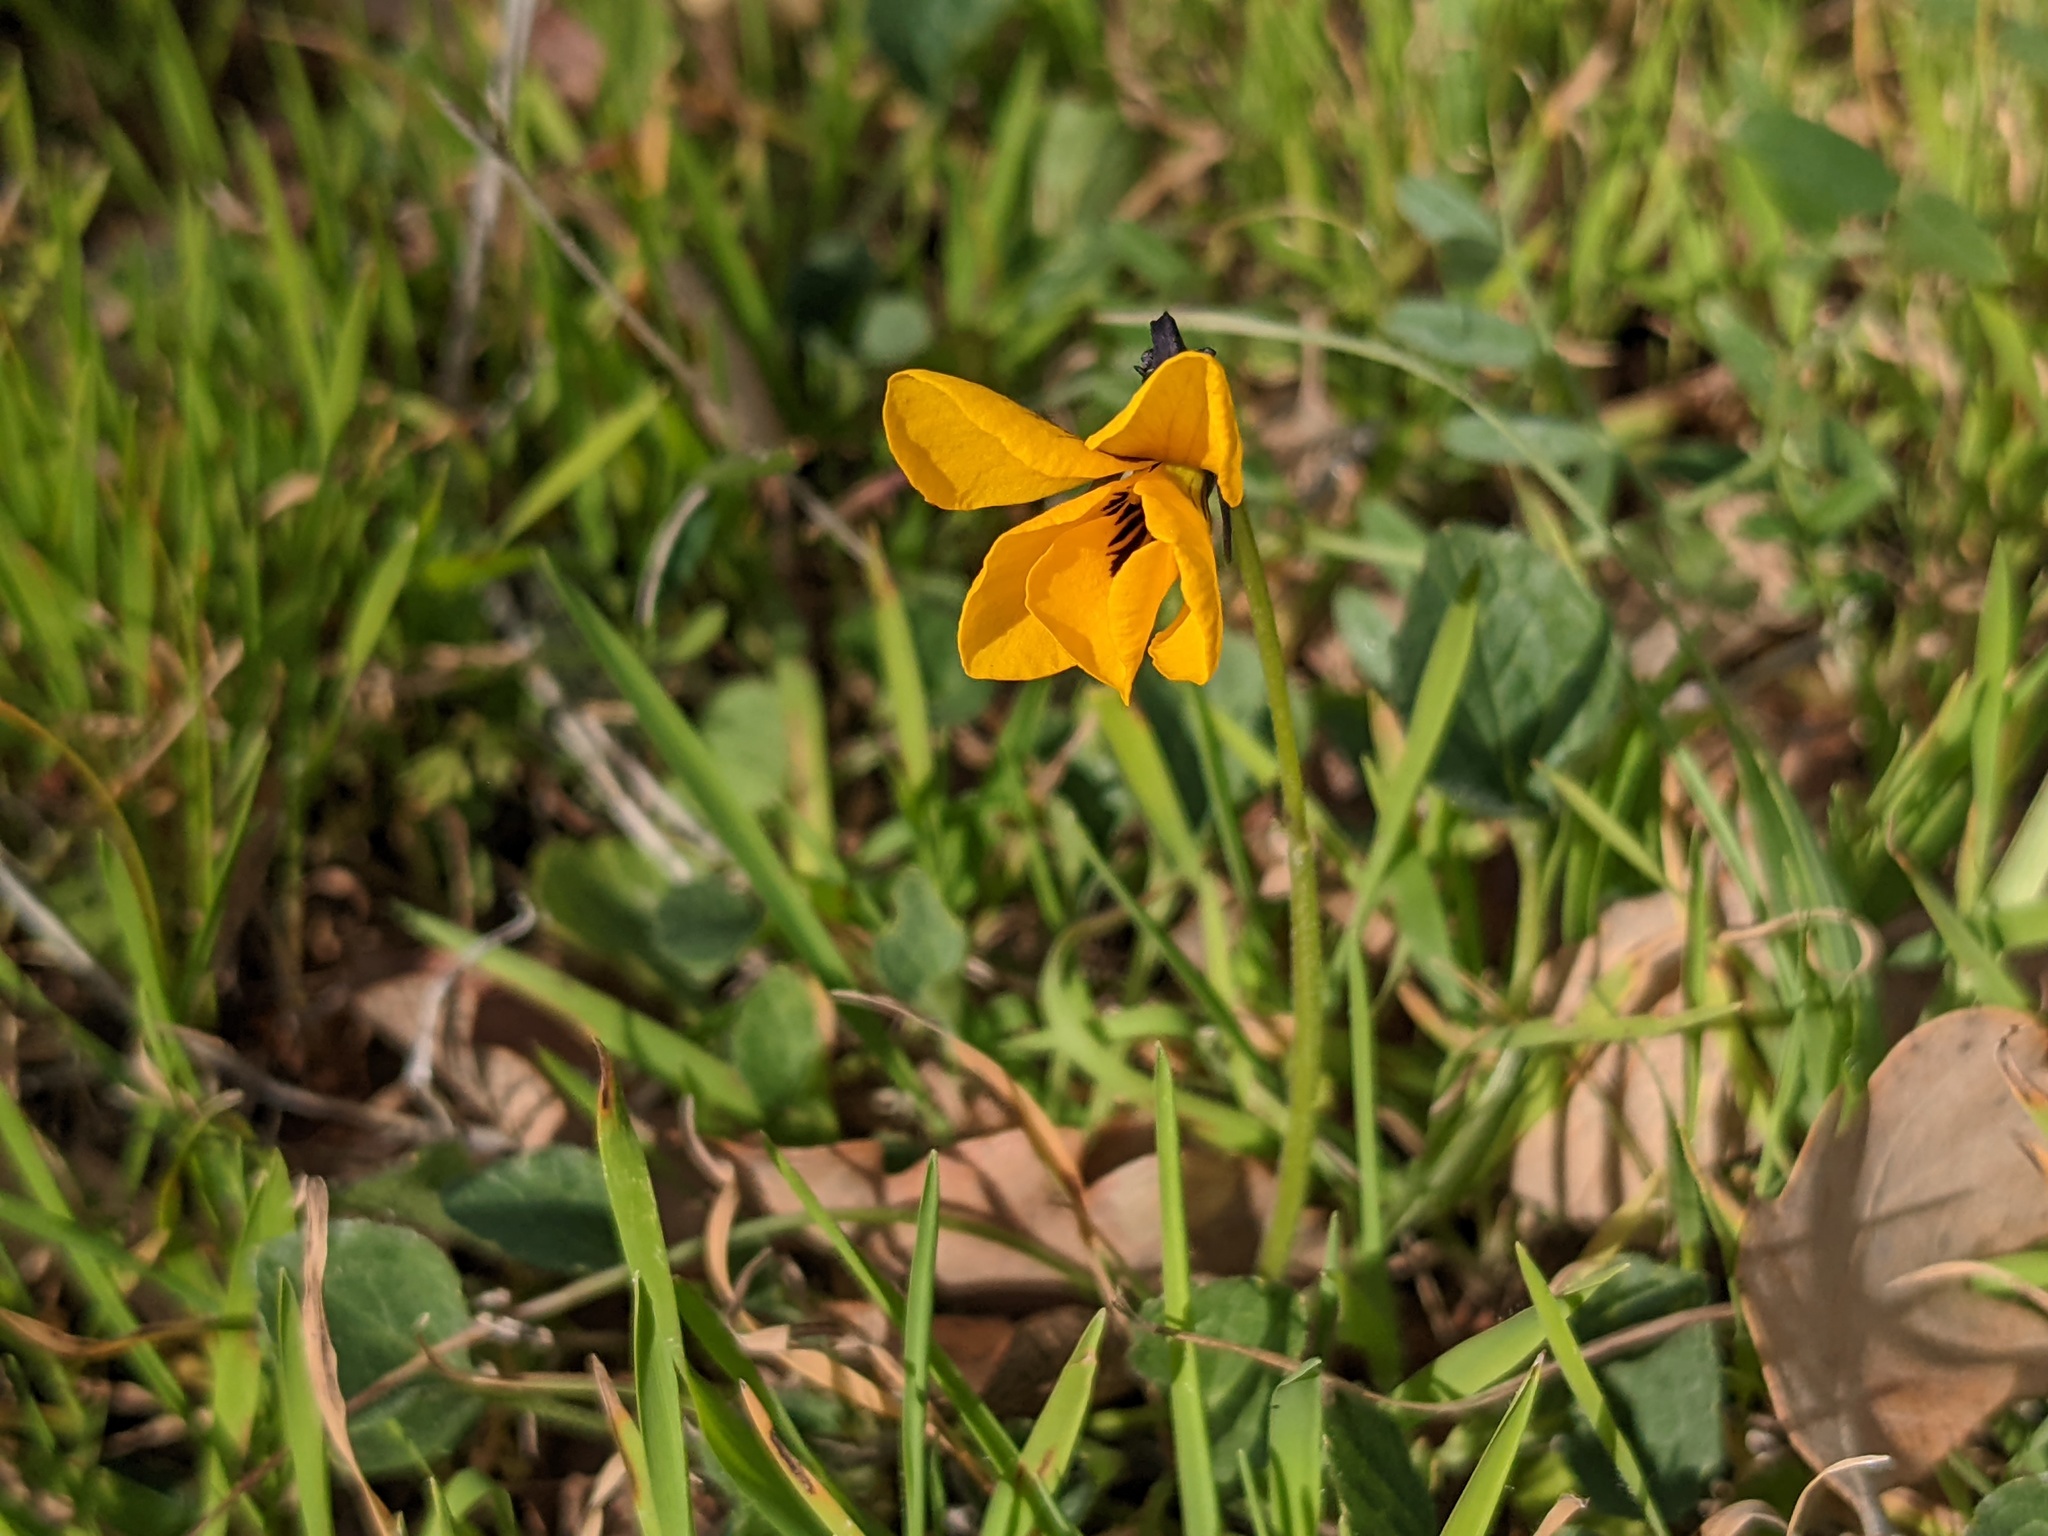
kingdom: Plantae
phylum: Tracheophyta
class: Magnoliopsida
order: Malpighiales
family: Violaceae
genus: Viola
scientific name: Viola pedunculata
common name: California golden violet
